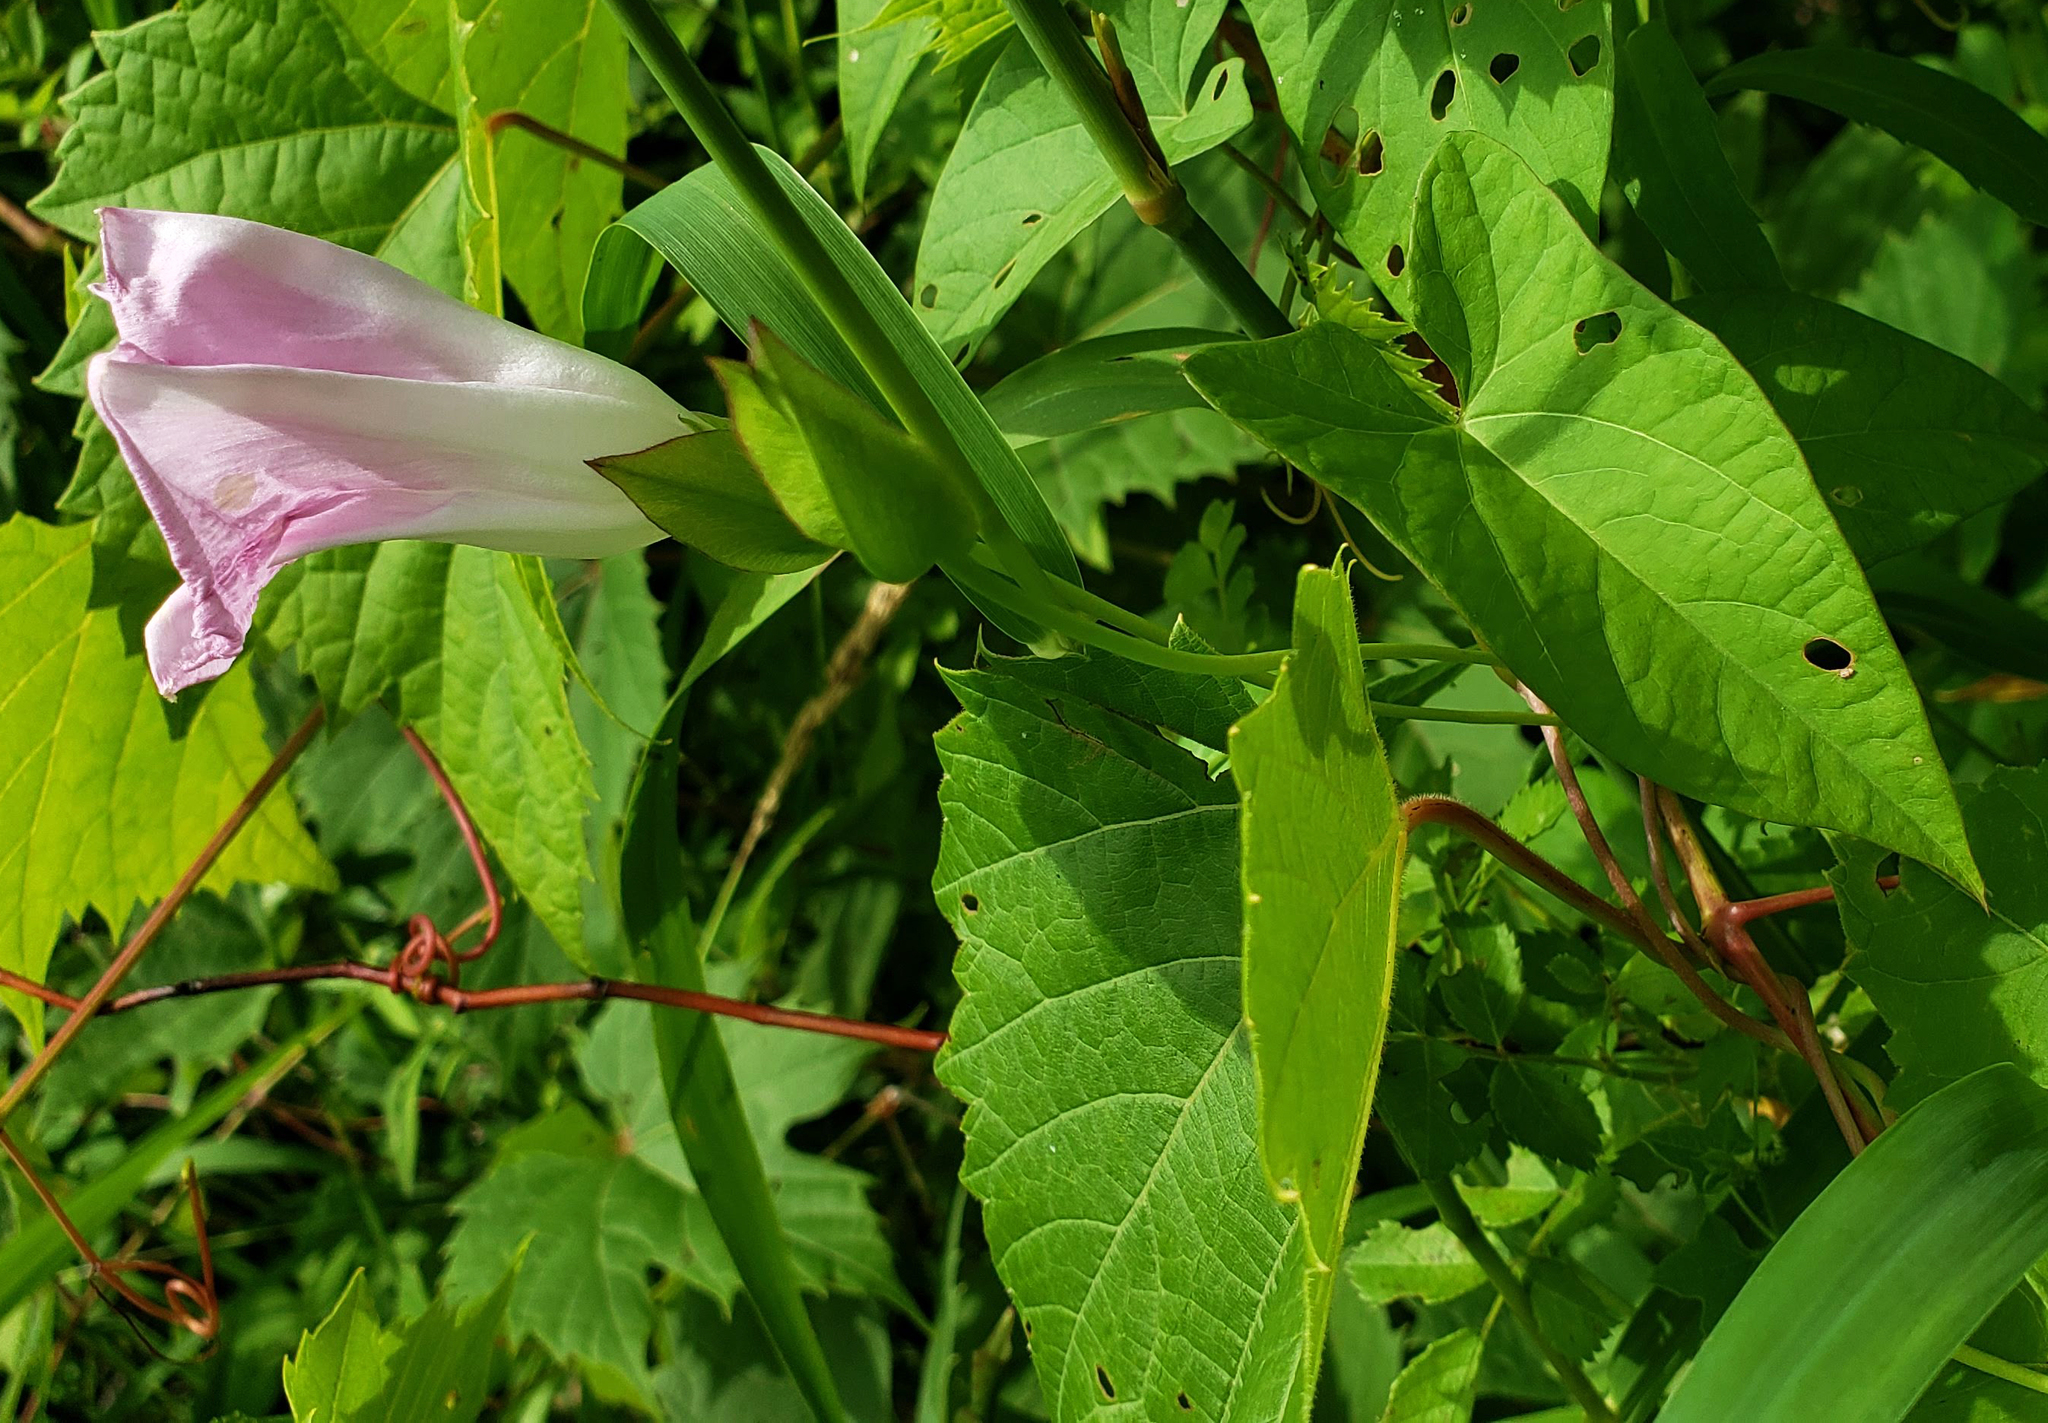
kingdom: Plantae
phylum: Tracheophyta
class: Magnoliopsida
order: Solanales
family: Convolvulaceae
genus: Calystegia
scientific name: Calystegia sepium
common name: Hedge bindweed
